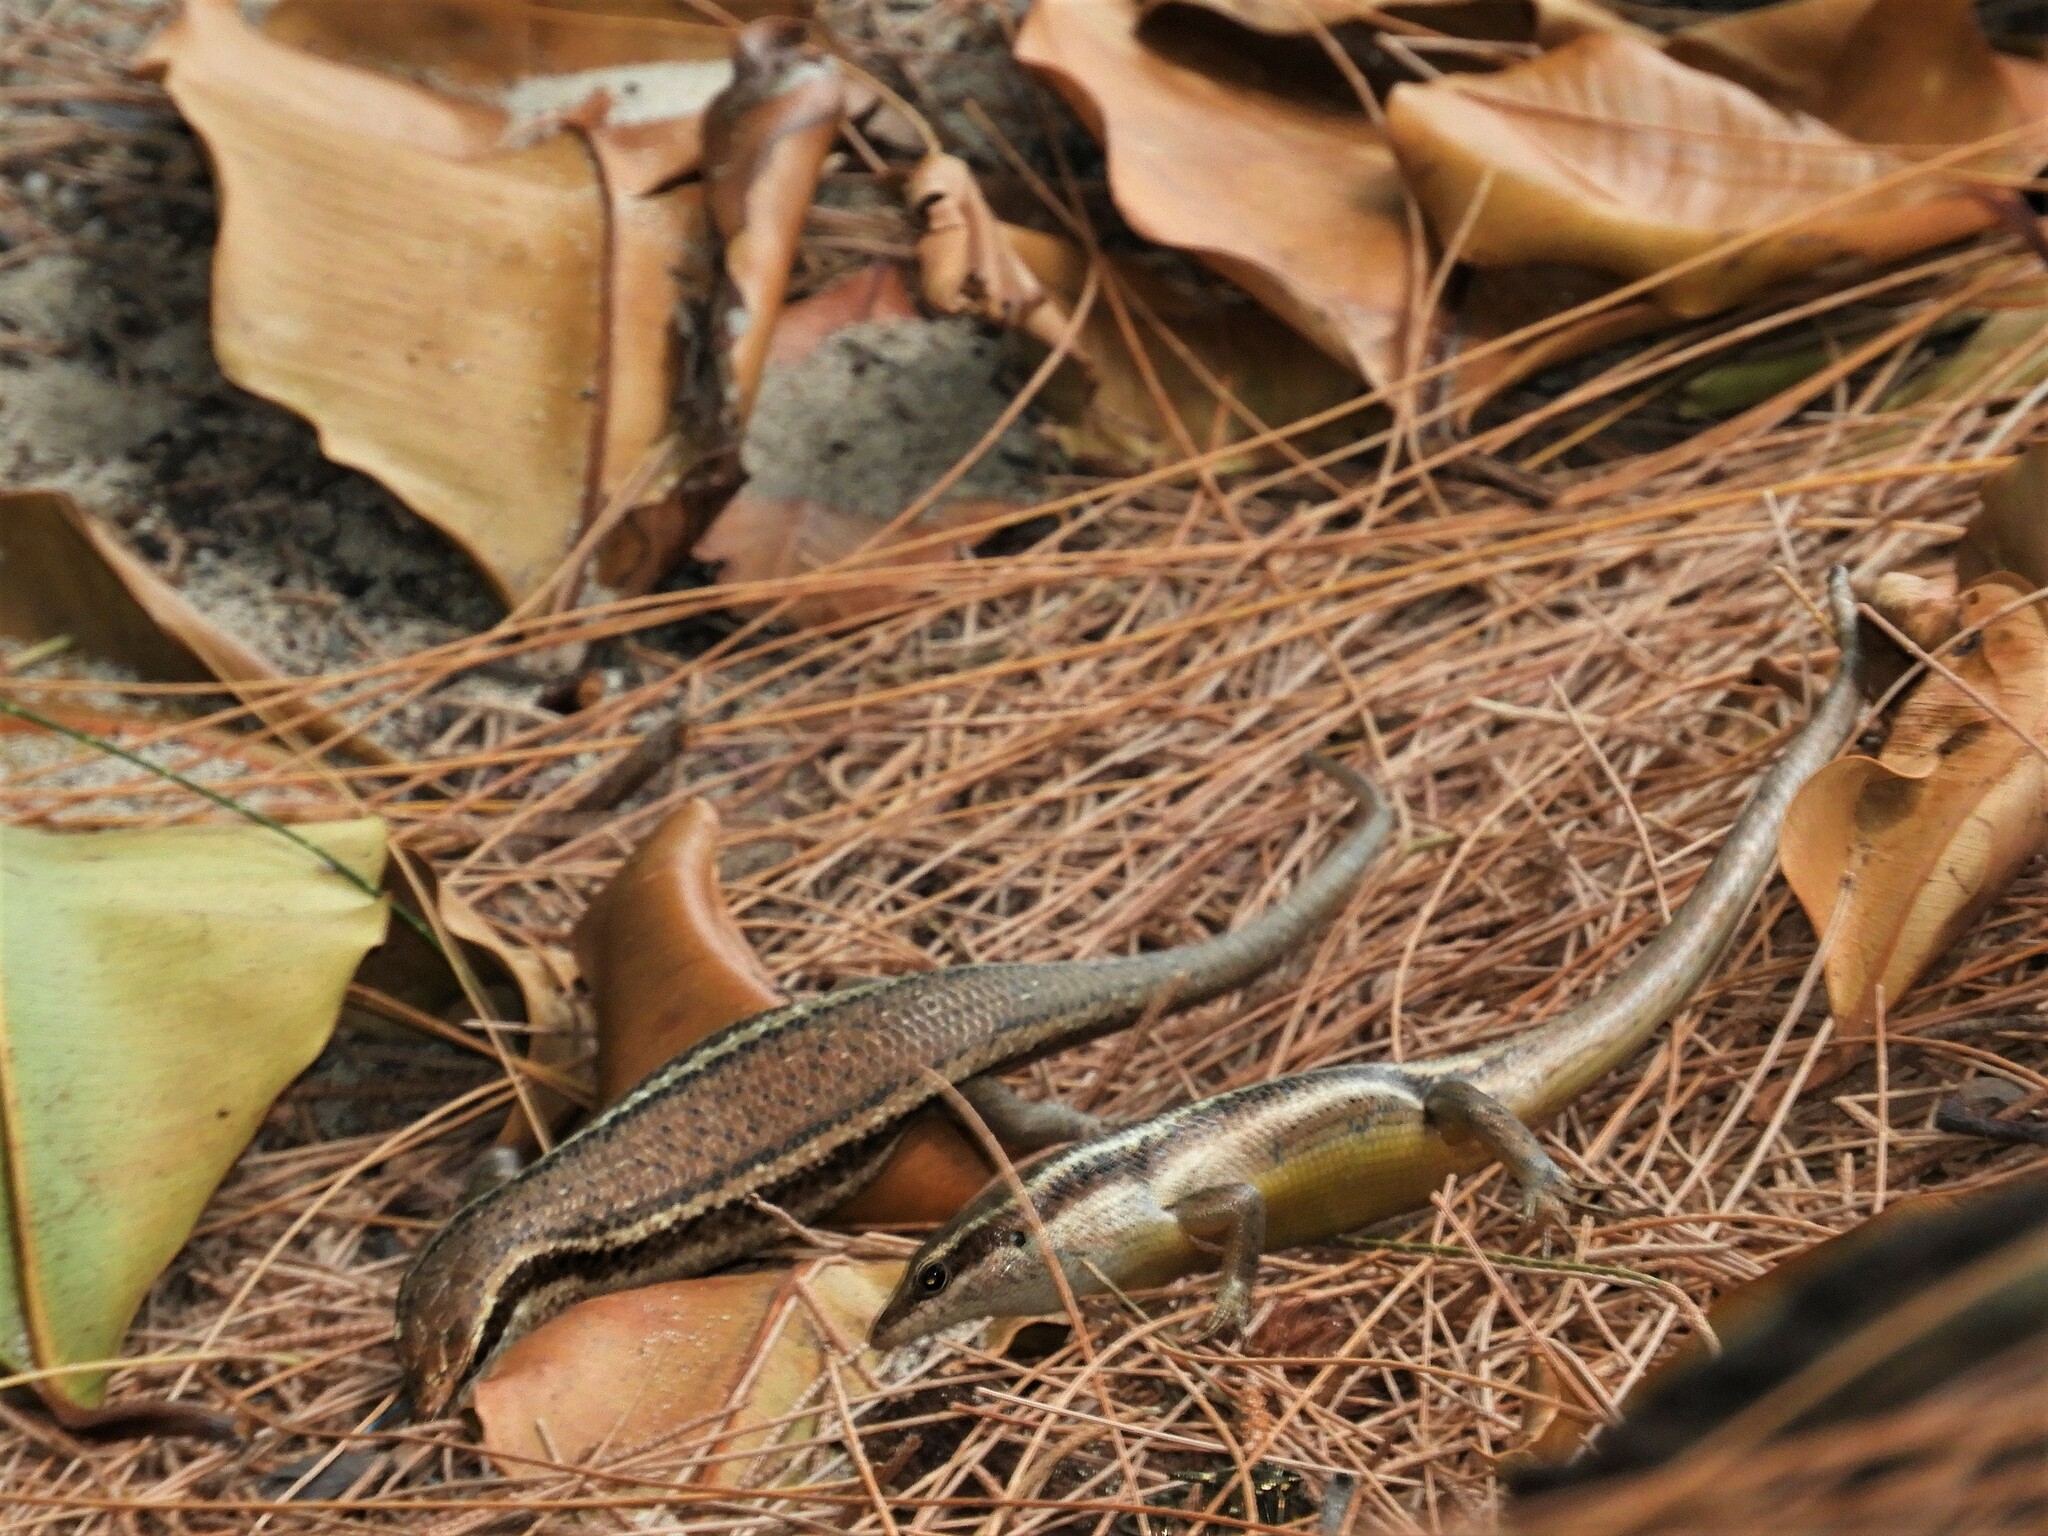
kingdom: Animalia
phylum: Chordata
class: Squamata
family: Scincidae
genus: Trachylepis
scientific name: Trachylepis sechellensis
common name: Seychelles skink
